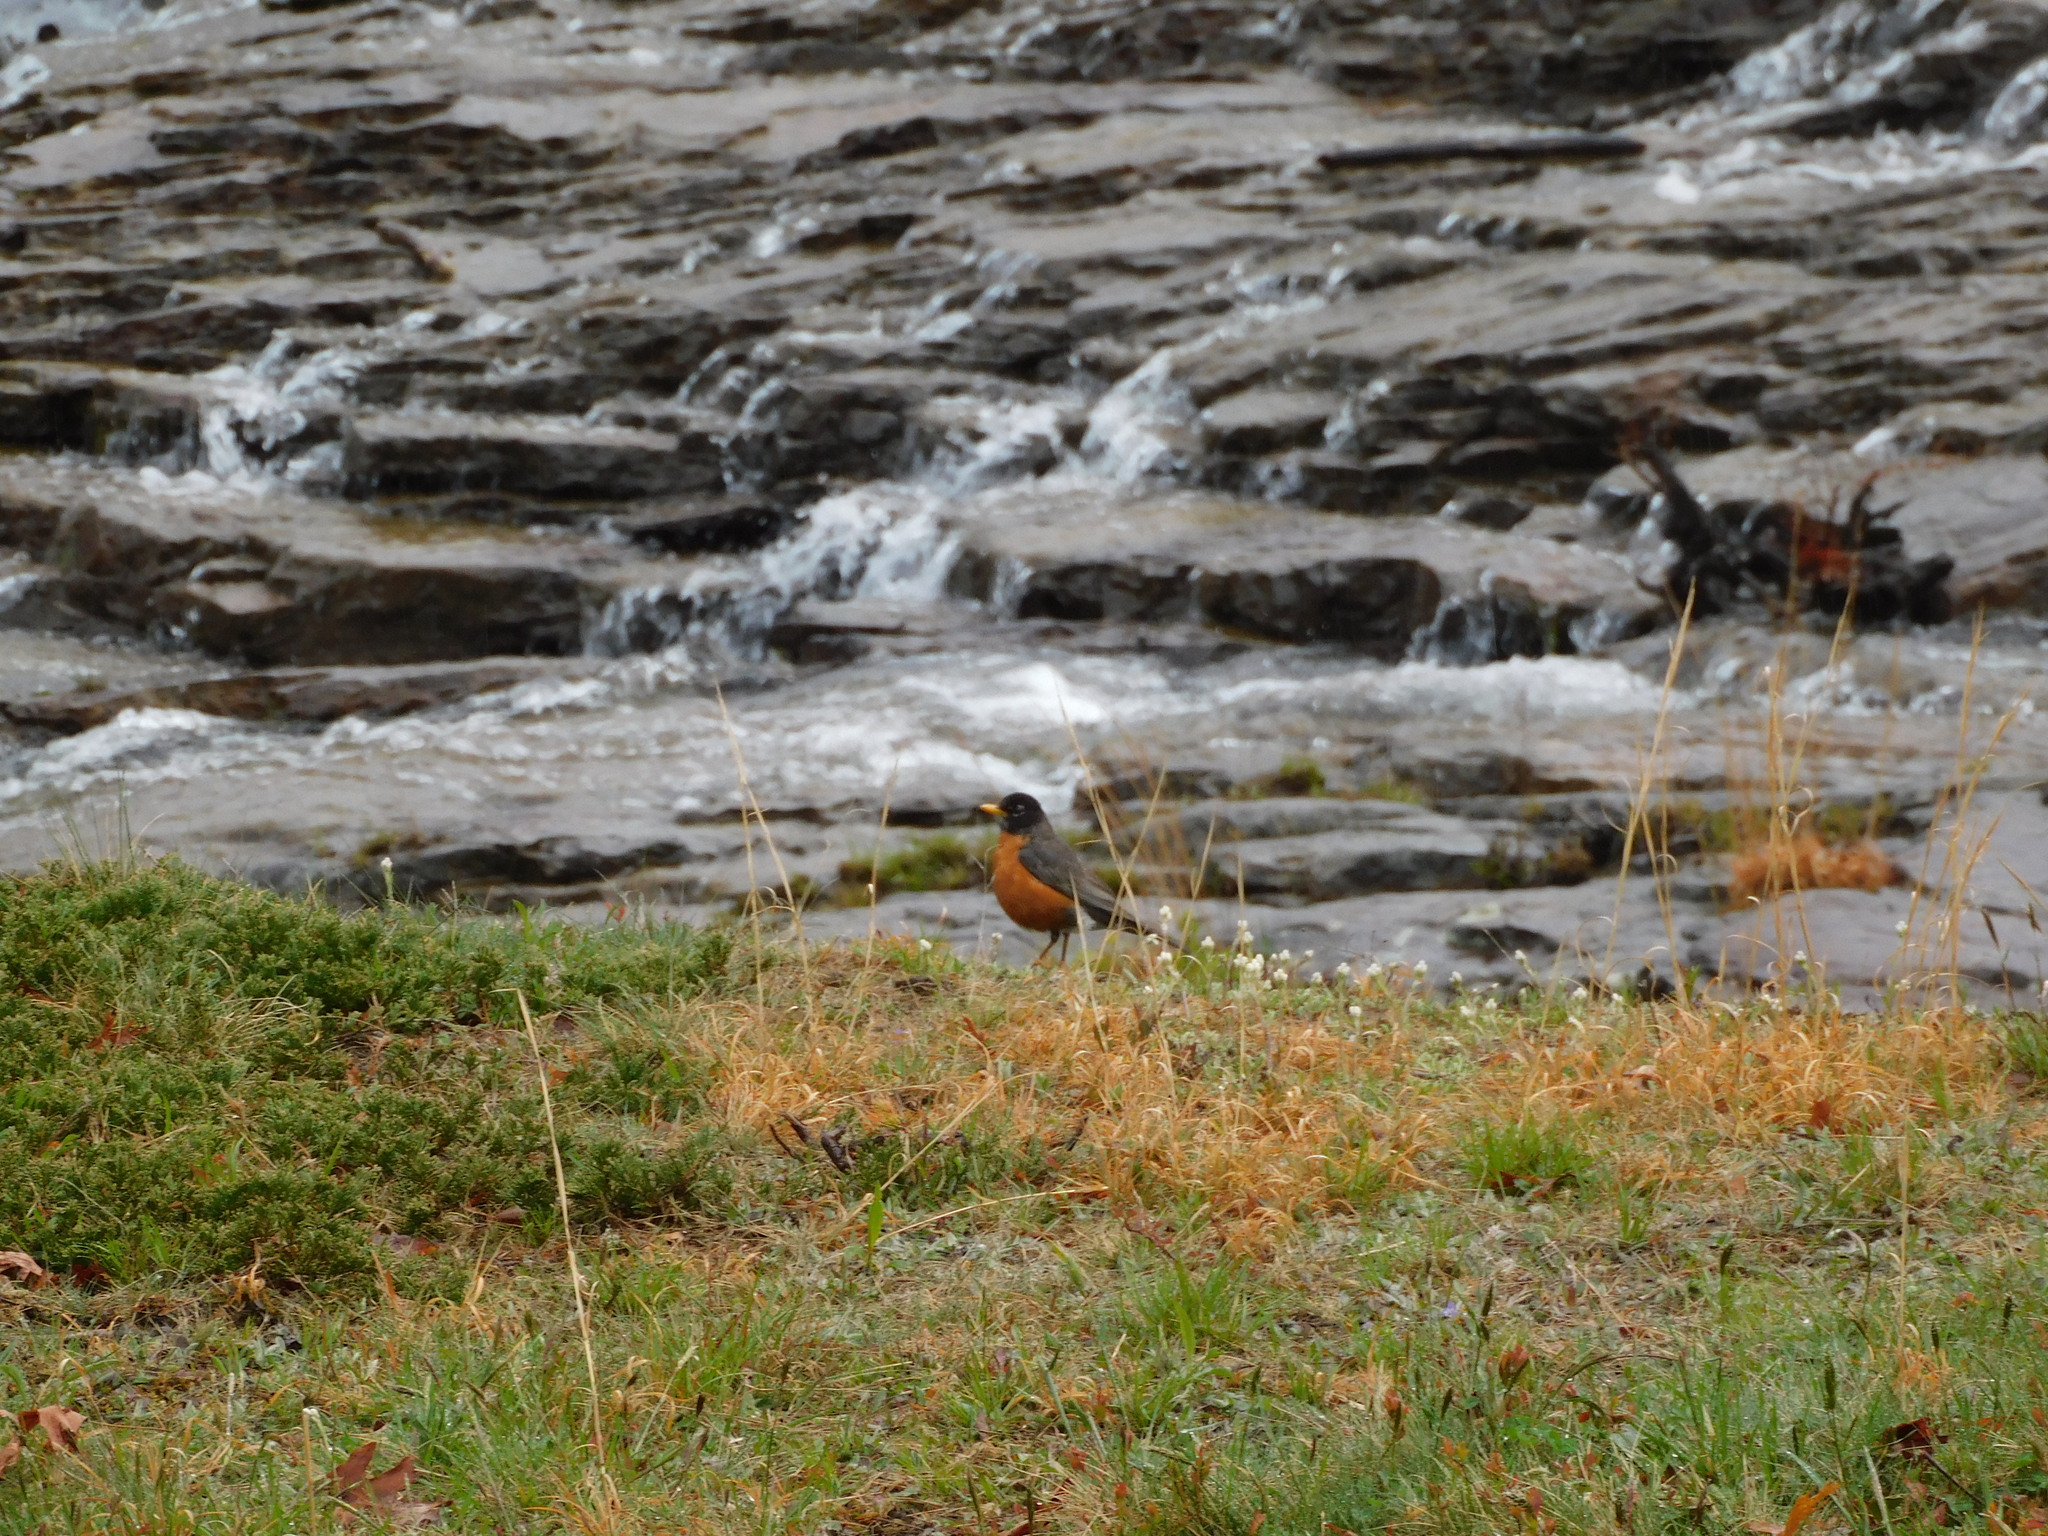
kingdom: Animalia
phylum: Chordata
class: Aves
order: Passeriformes
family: Turdidae
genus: Turdus
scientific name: Turdus migratorius
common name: American robin
